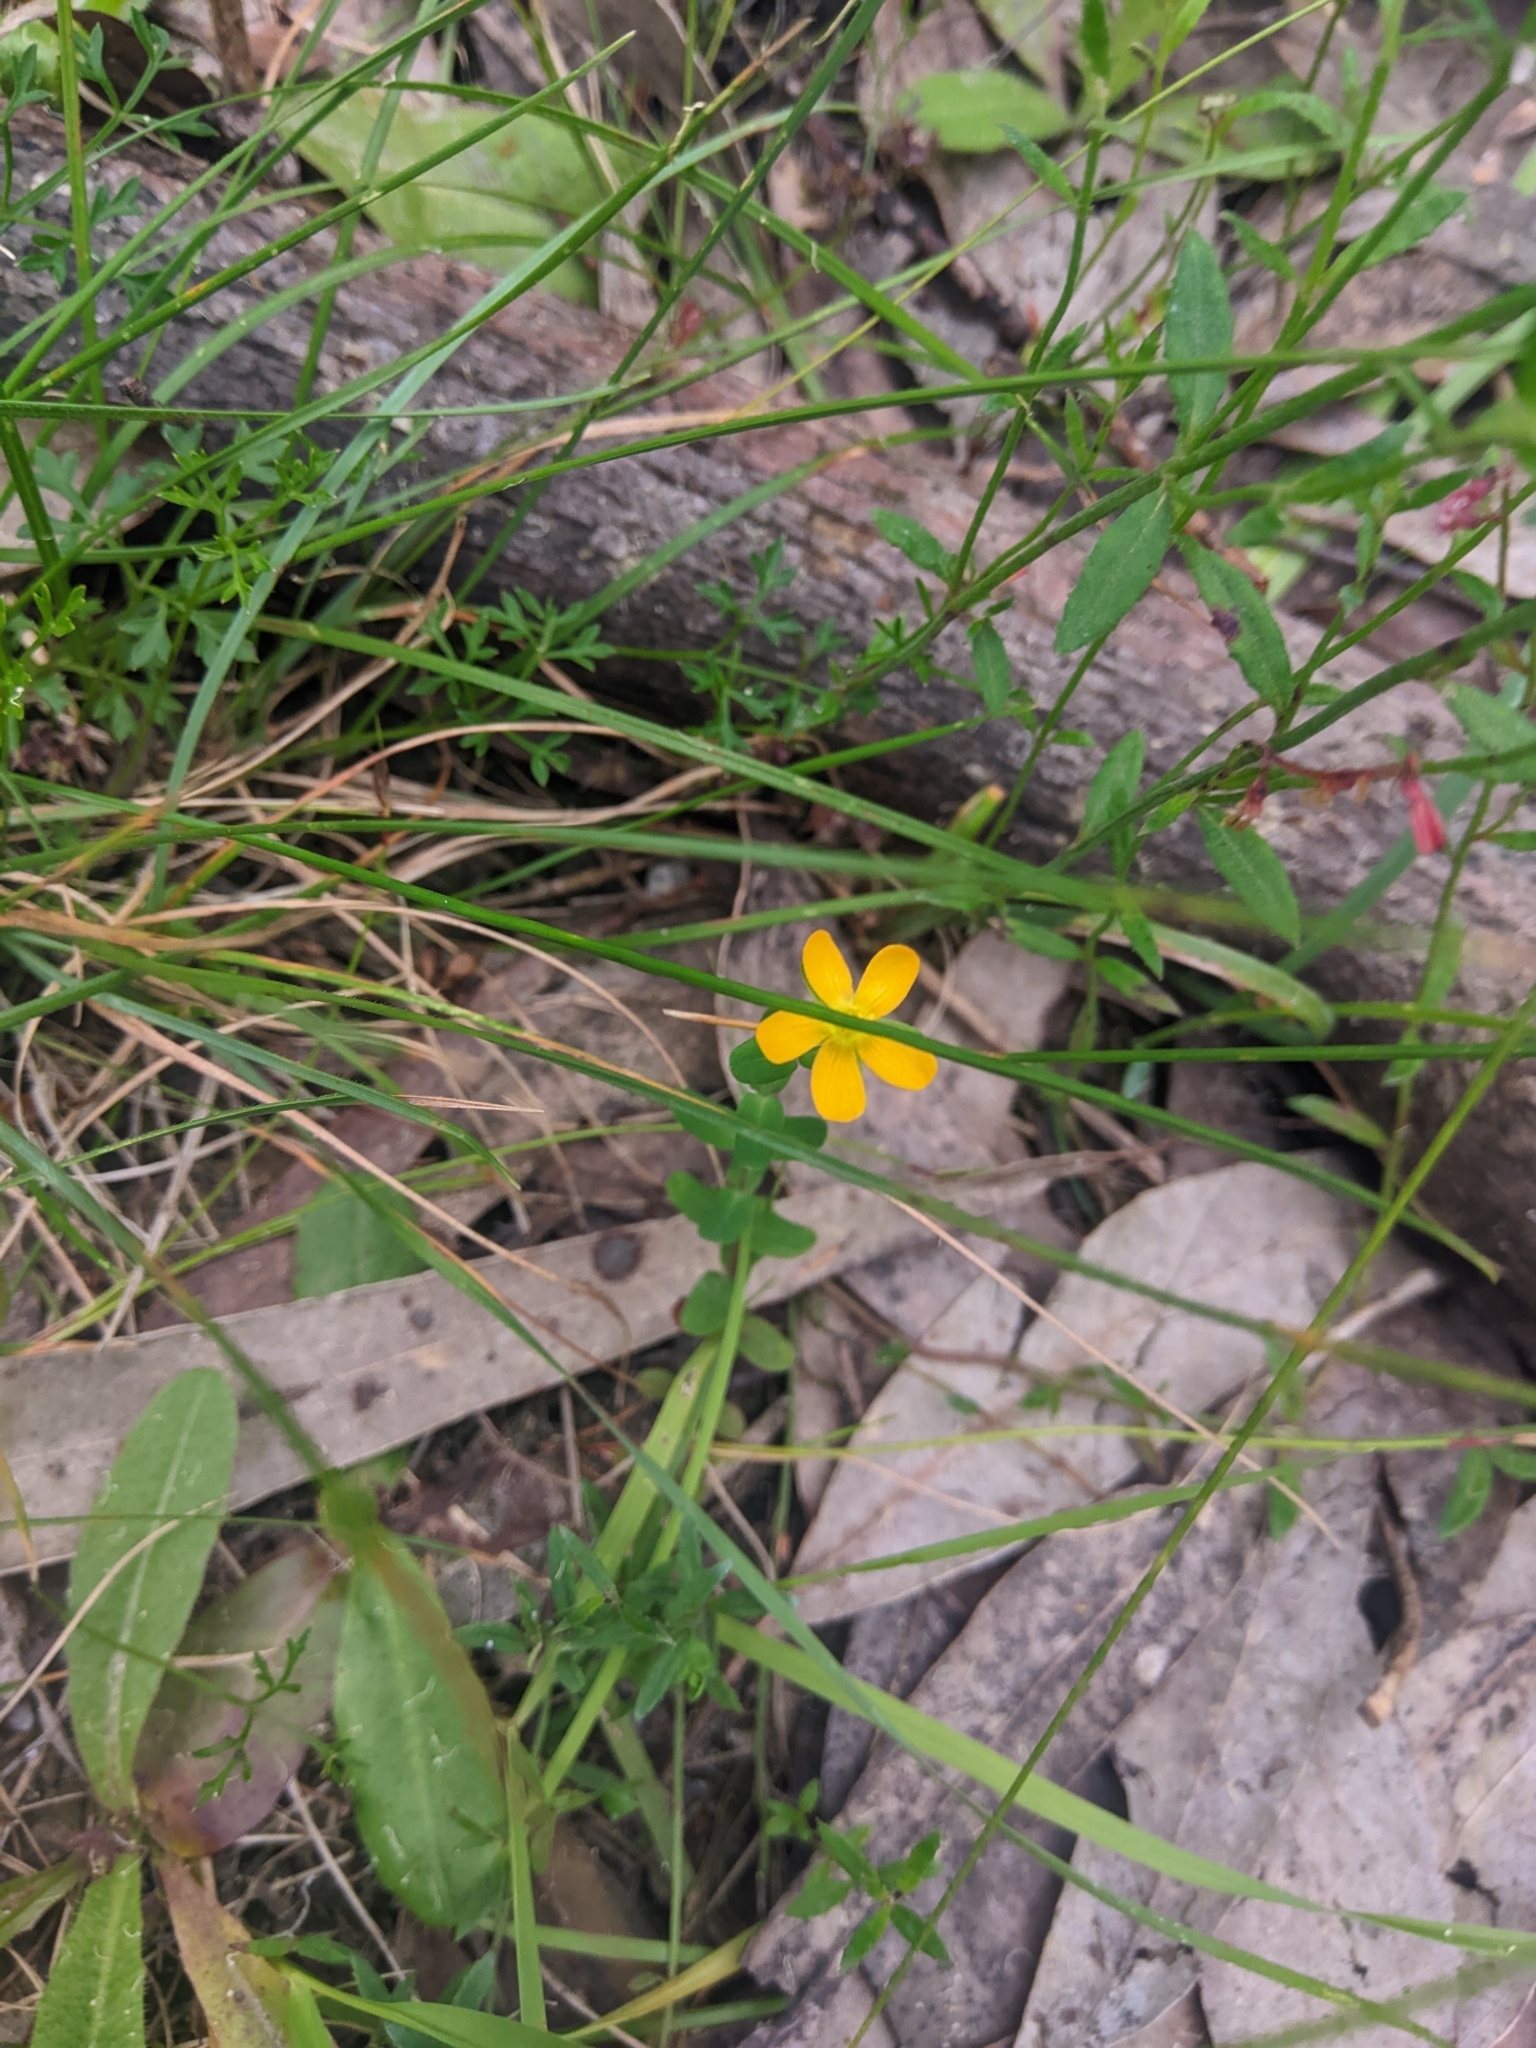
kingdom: Plantae
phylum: Tracheophyta
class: Magnoliopsida
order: Malpighiales
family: Hypericaceae
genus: Hypericum
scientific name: Hypericum gramineum
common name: Grassy st. johnswort
